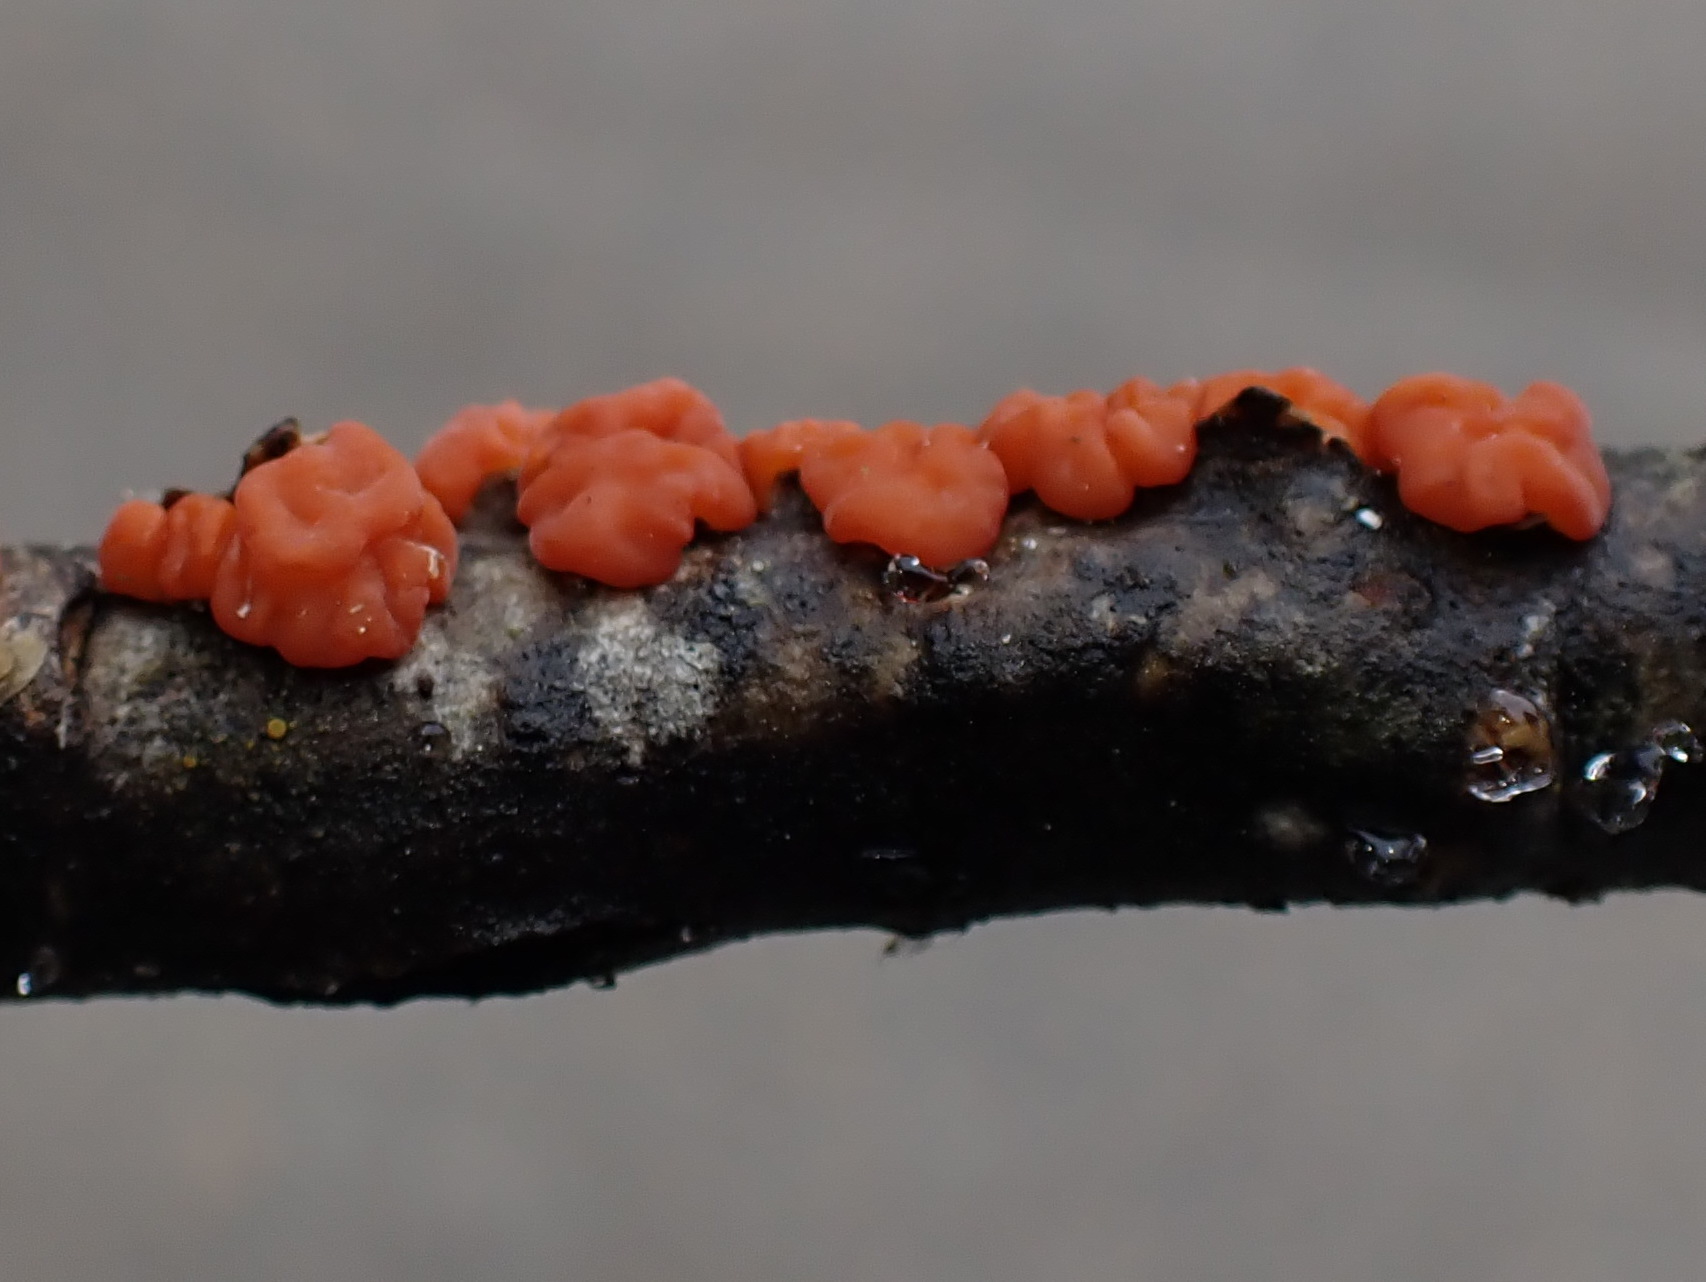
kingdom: Fungi
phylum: Basidiomycota
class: Agaricomycetes
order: Russulales
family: Peniophoraceae
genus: Peniophora
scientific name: Peniophora rufa
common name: Red tree brain fungus
